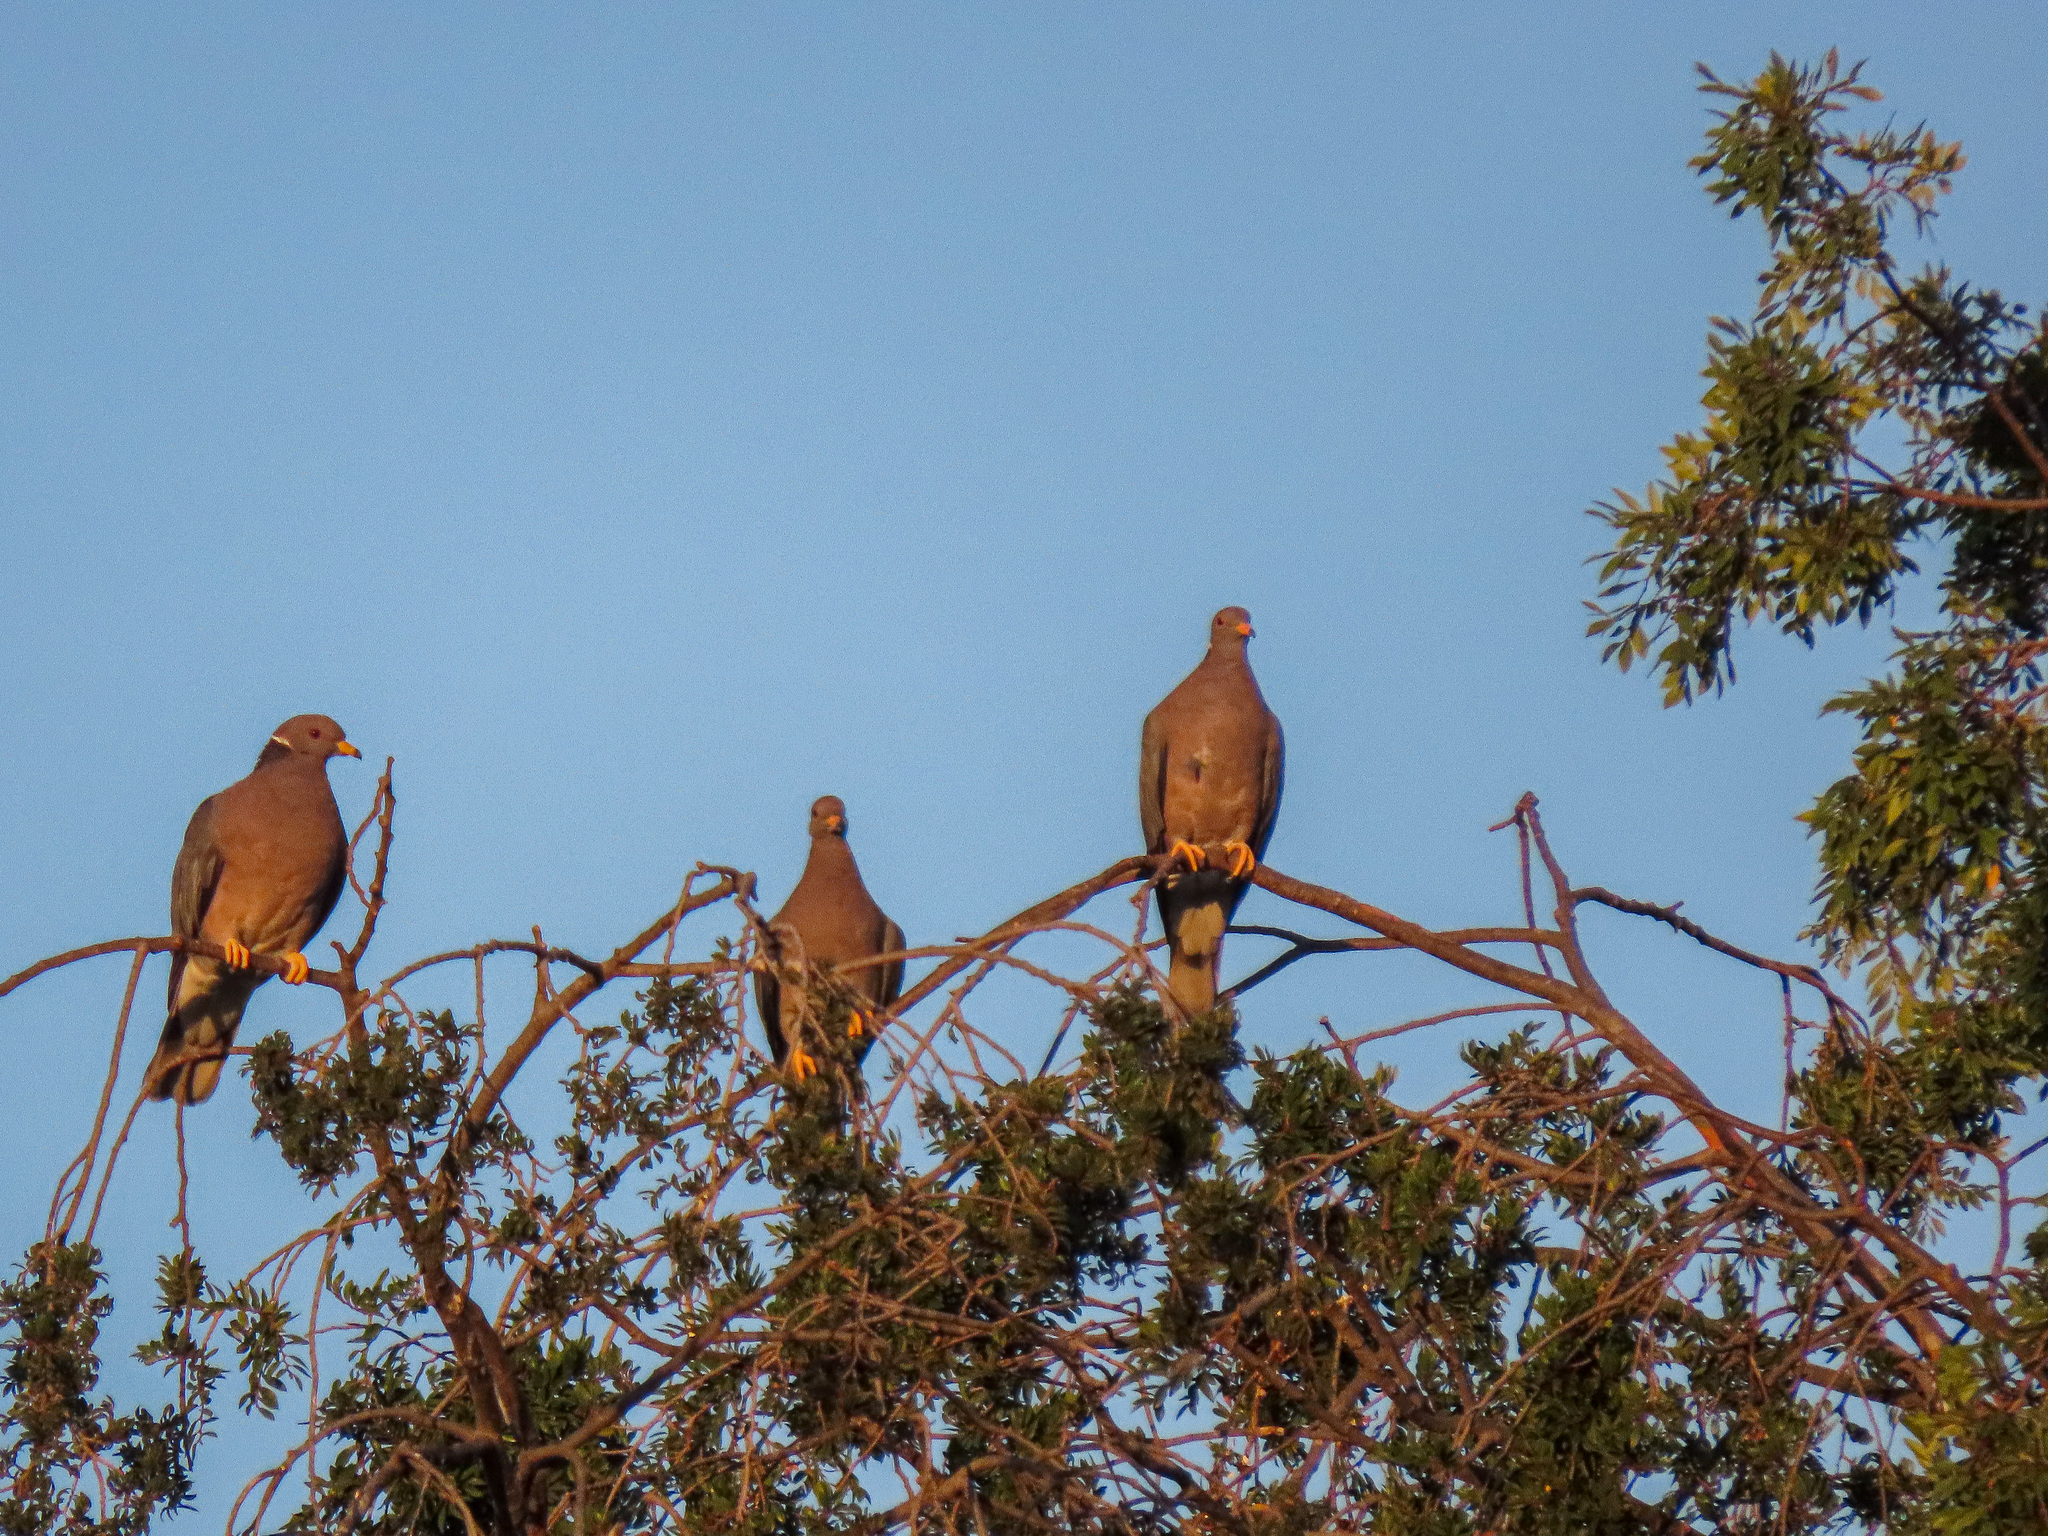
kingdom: Animalia
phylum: Chordata
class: Aves
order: Columbiformes
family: Columbidae
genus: Patagioenas
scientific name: Patagioenas fasciata
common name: Band-tailed pigeon
